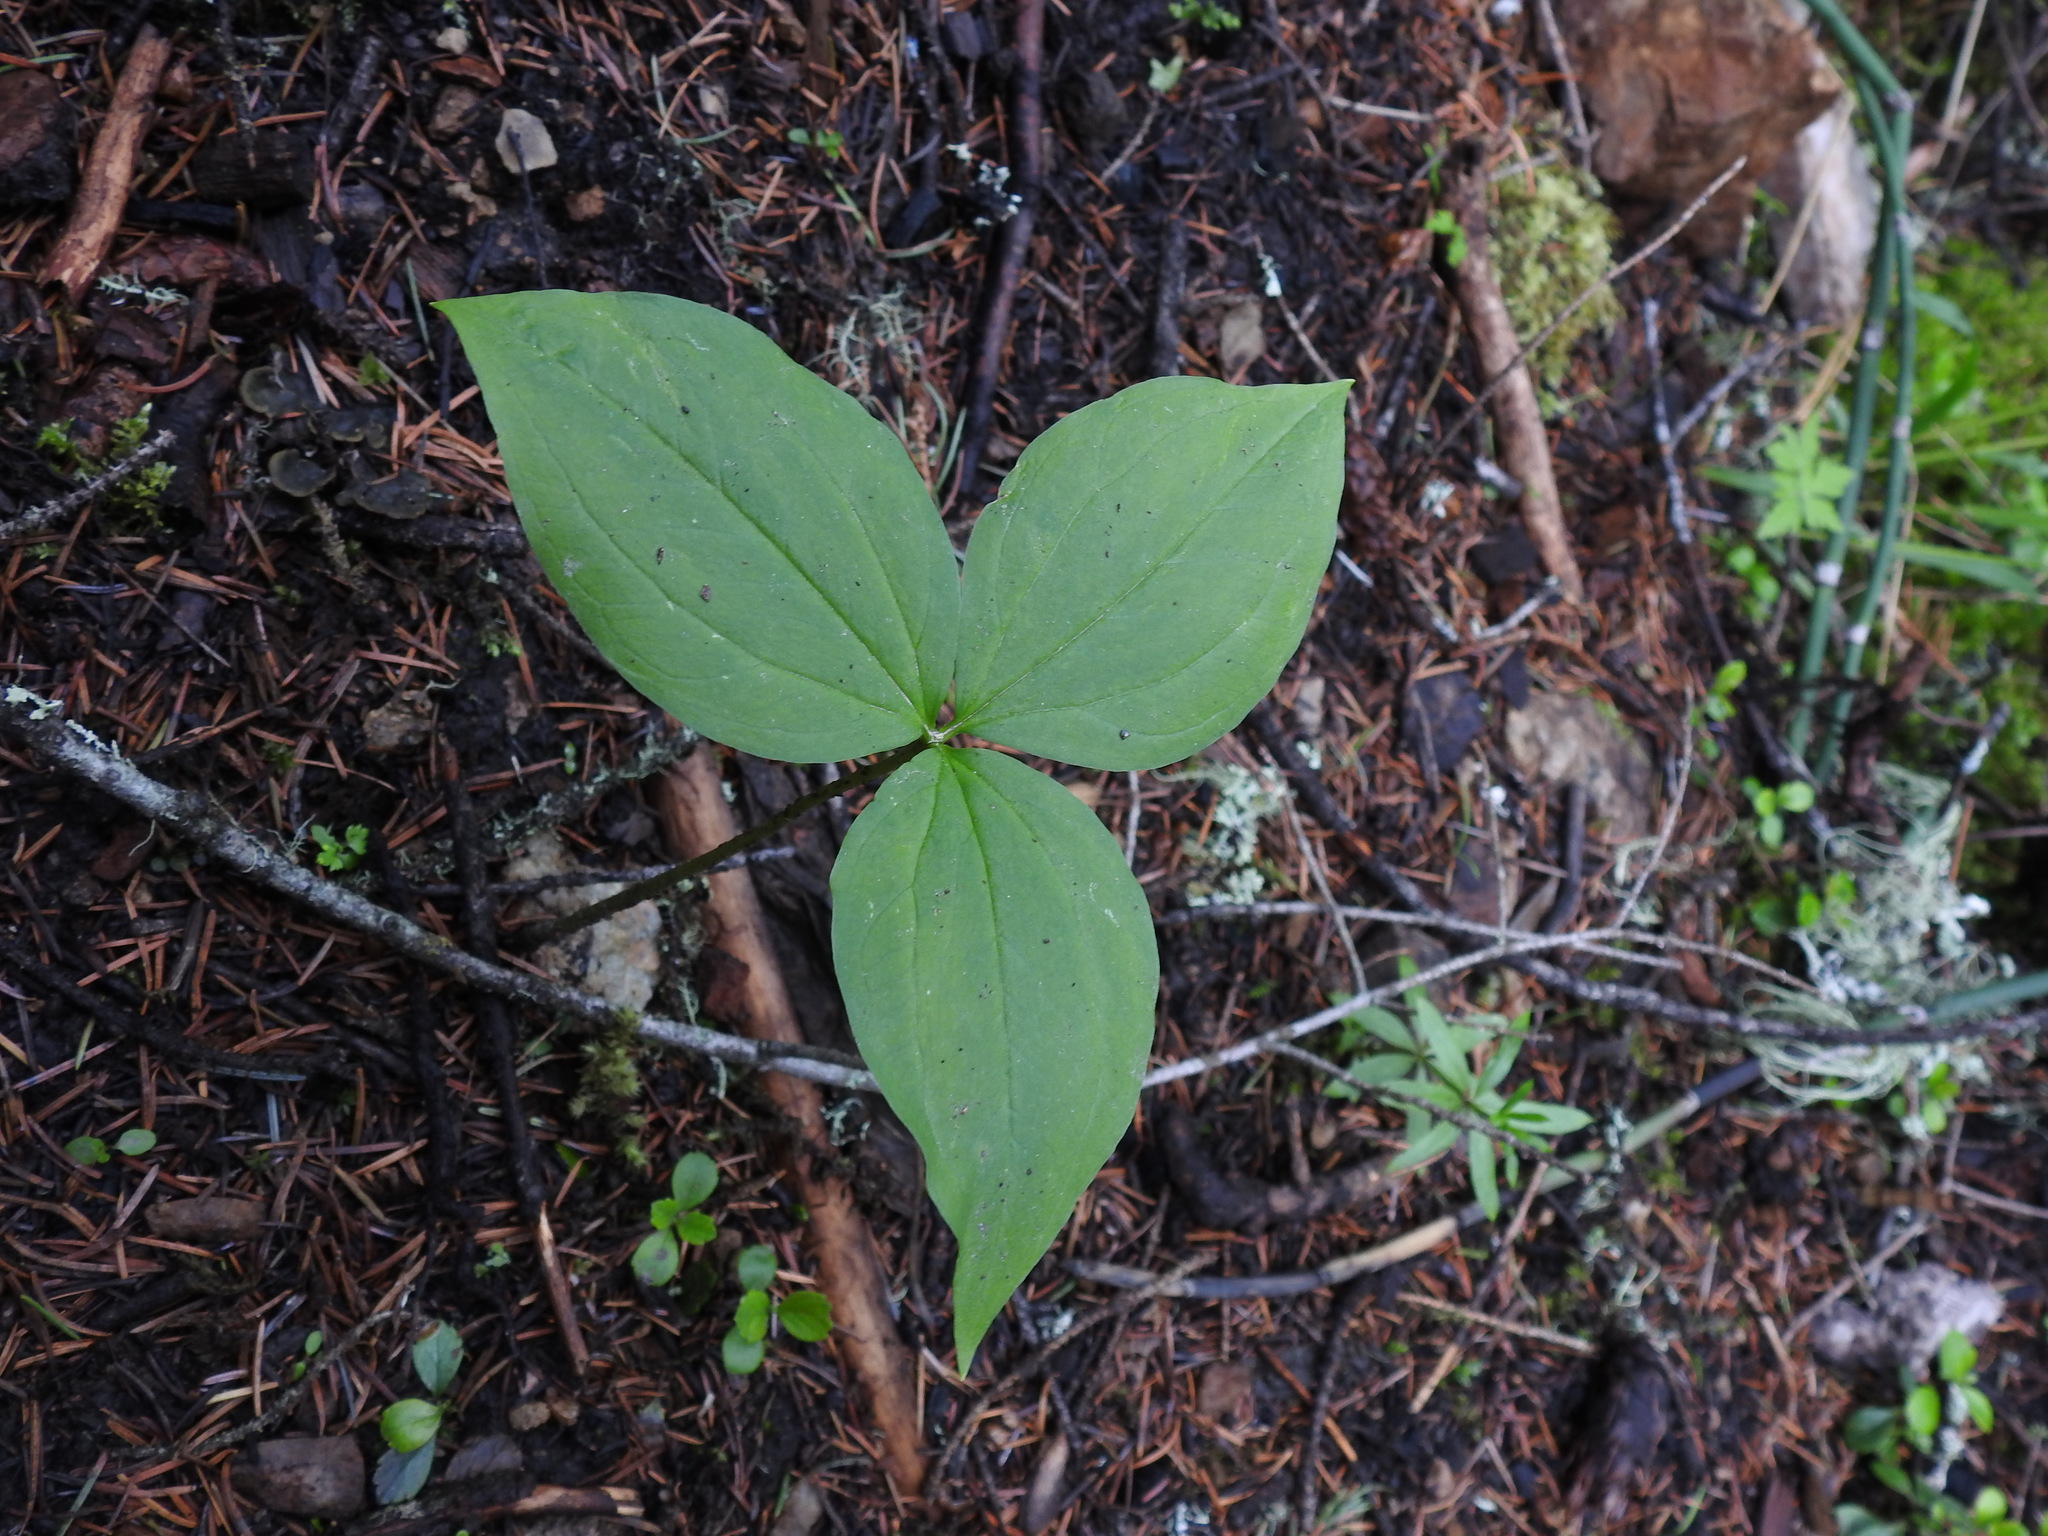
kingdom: Plantae
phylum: Tracheophyta
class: Liliopsida
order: Liliales
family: Melanthiaceae
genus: Trillium
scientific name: Trillium ovatum
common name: Pacific trillium
